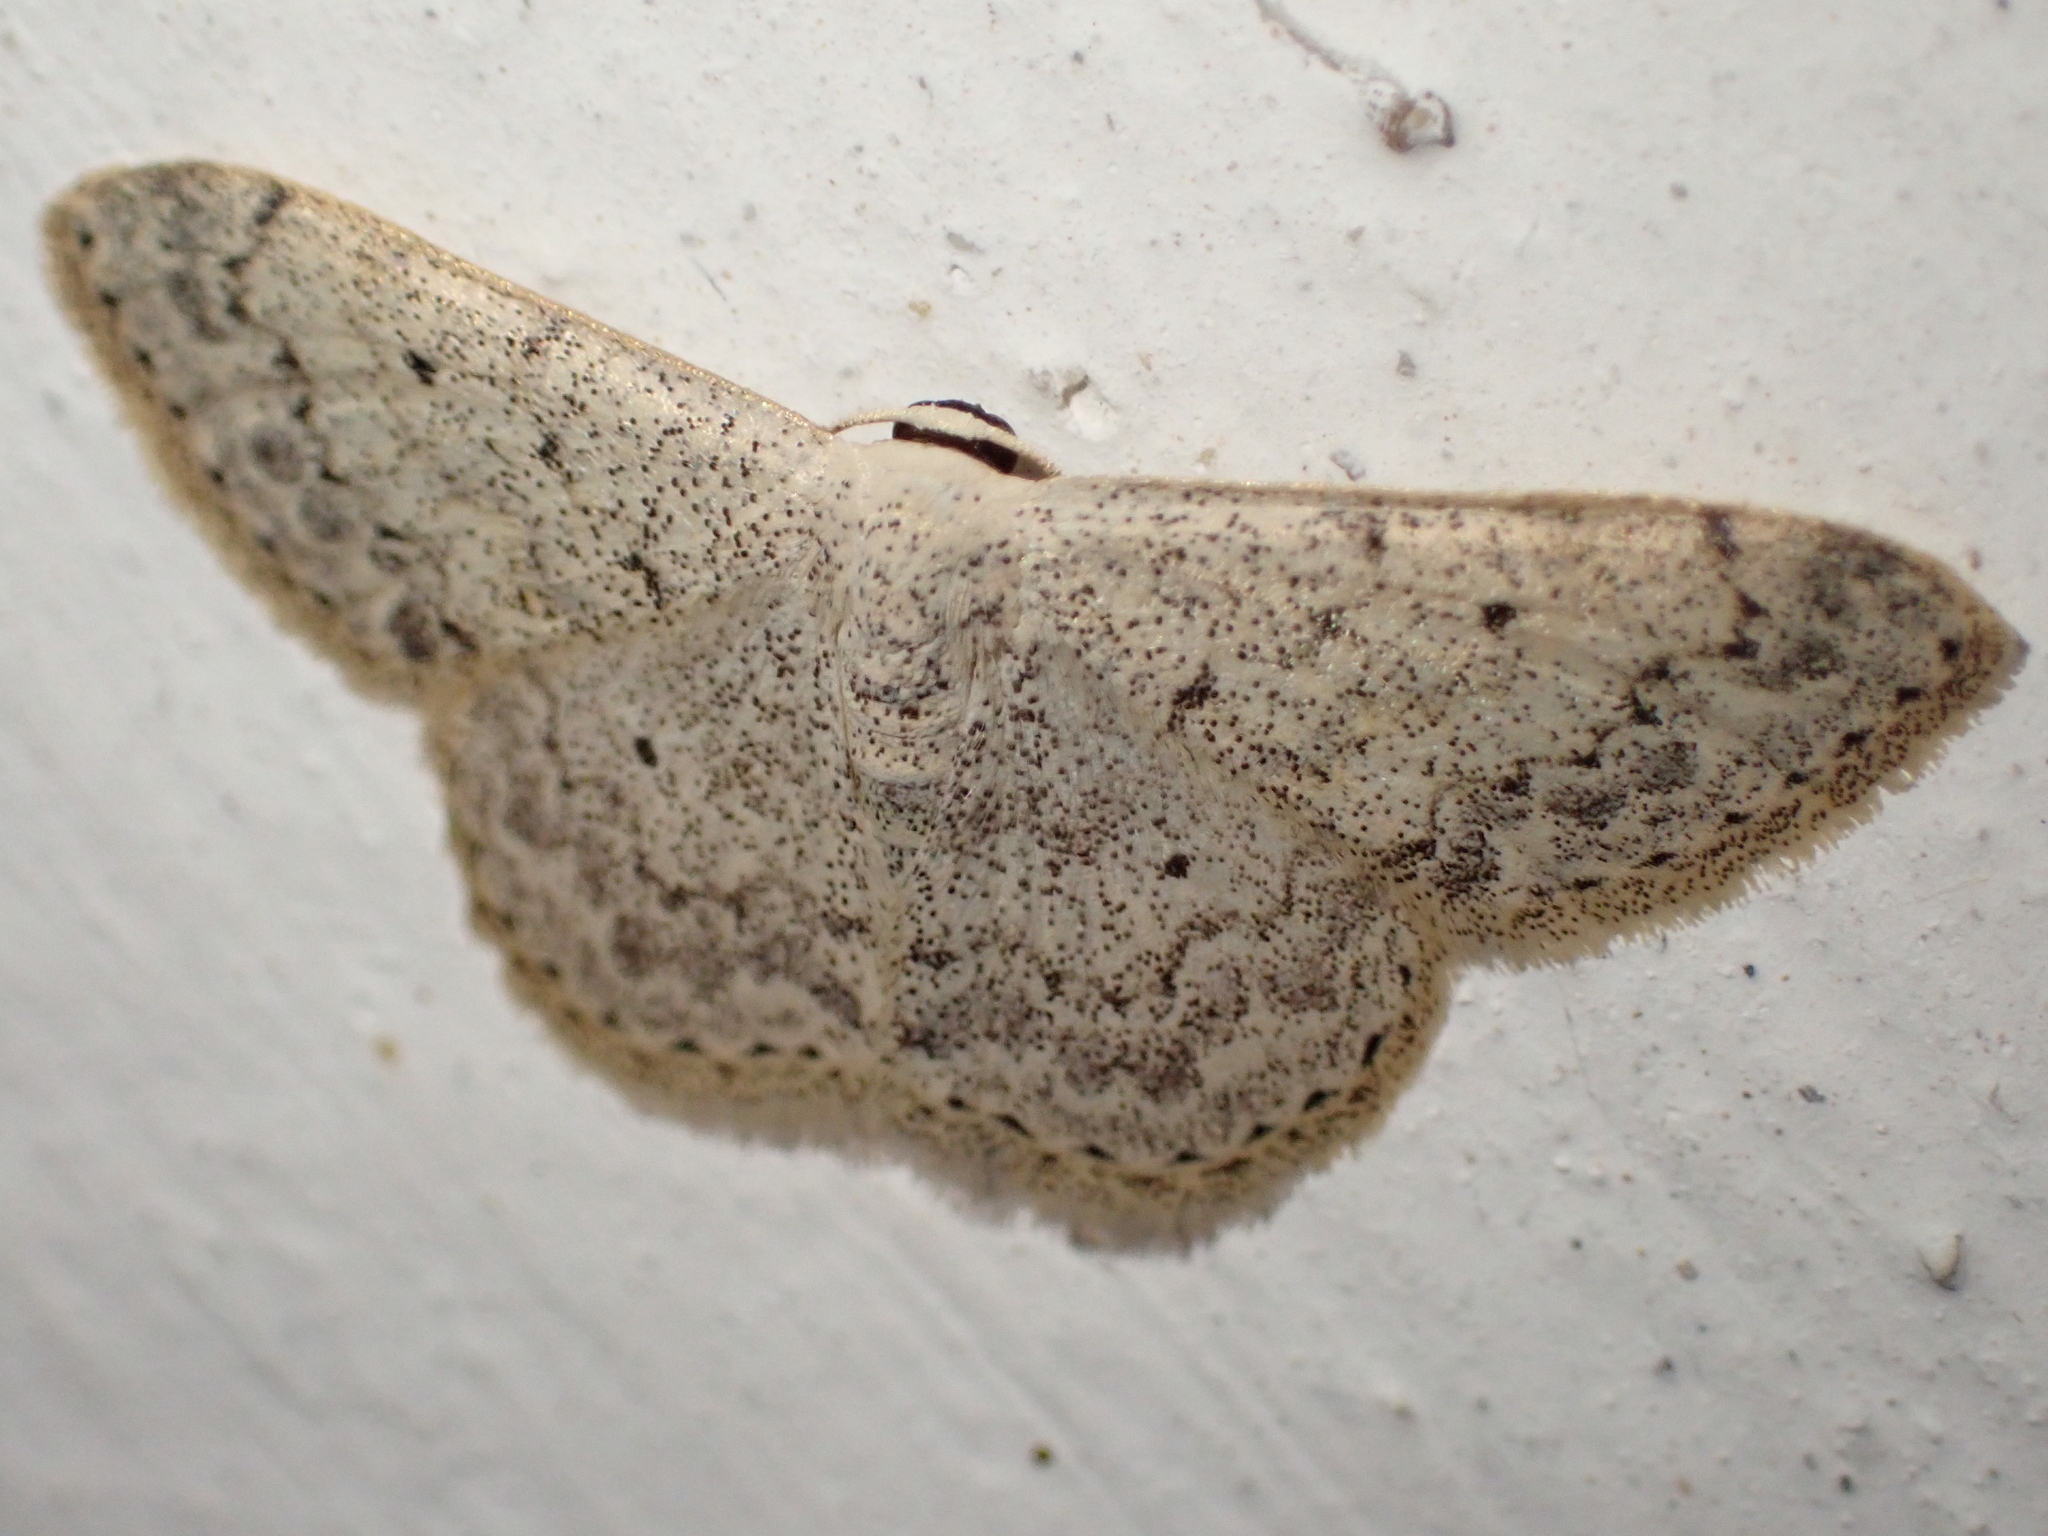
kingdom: Animalia
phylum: Arthropoda
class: Insecta
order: Lepidoptera
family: Geometridae
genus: Scopula
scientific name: Scopula marginepunctata
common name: Mullein wave
